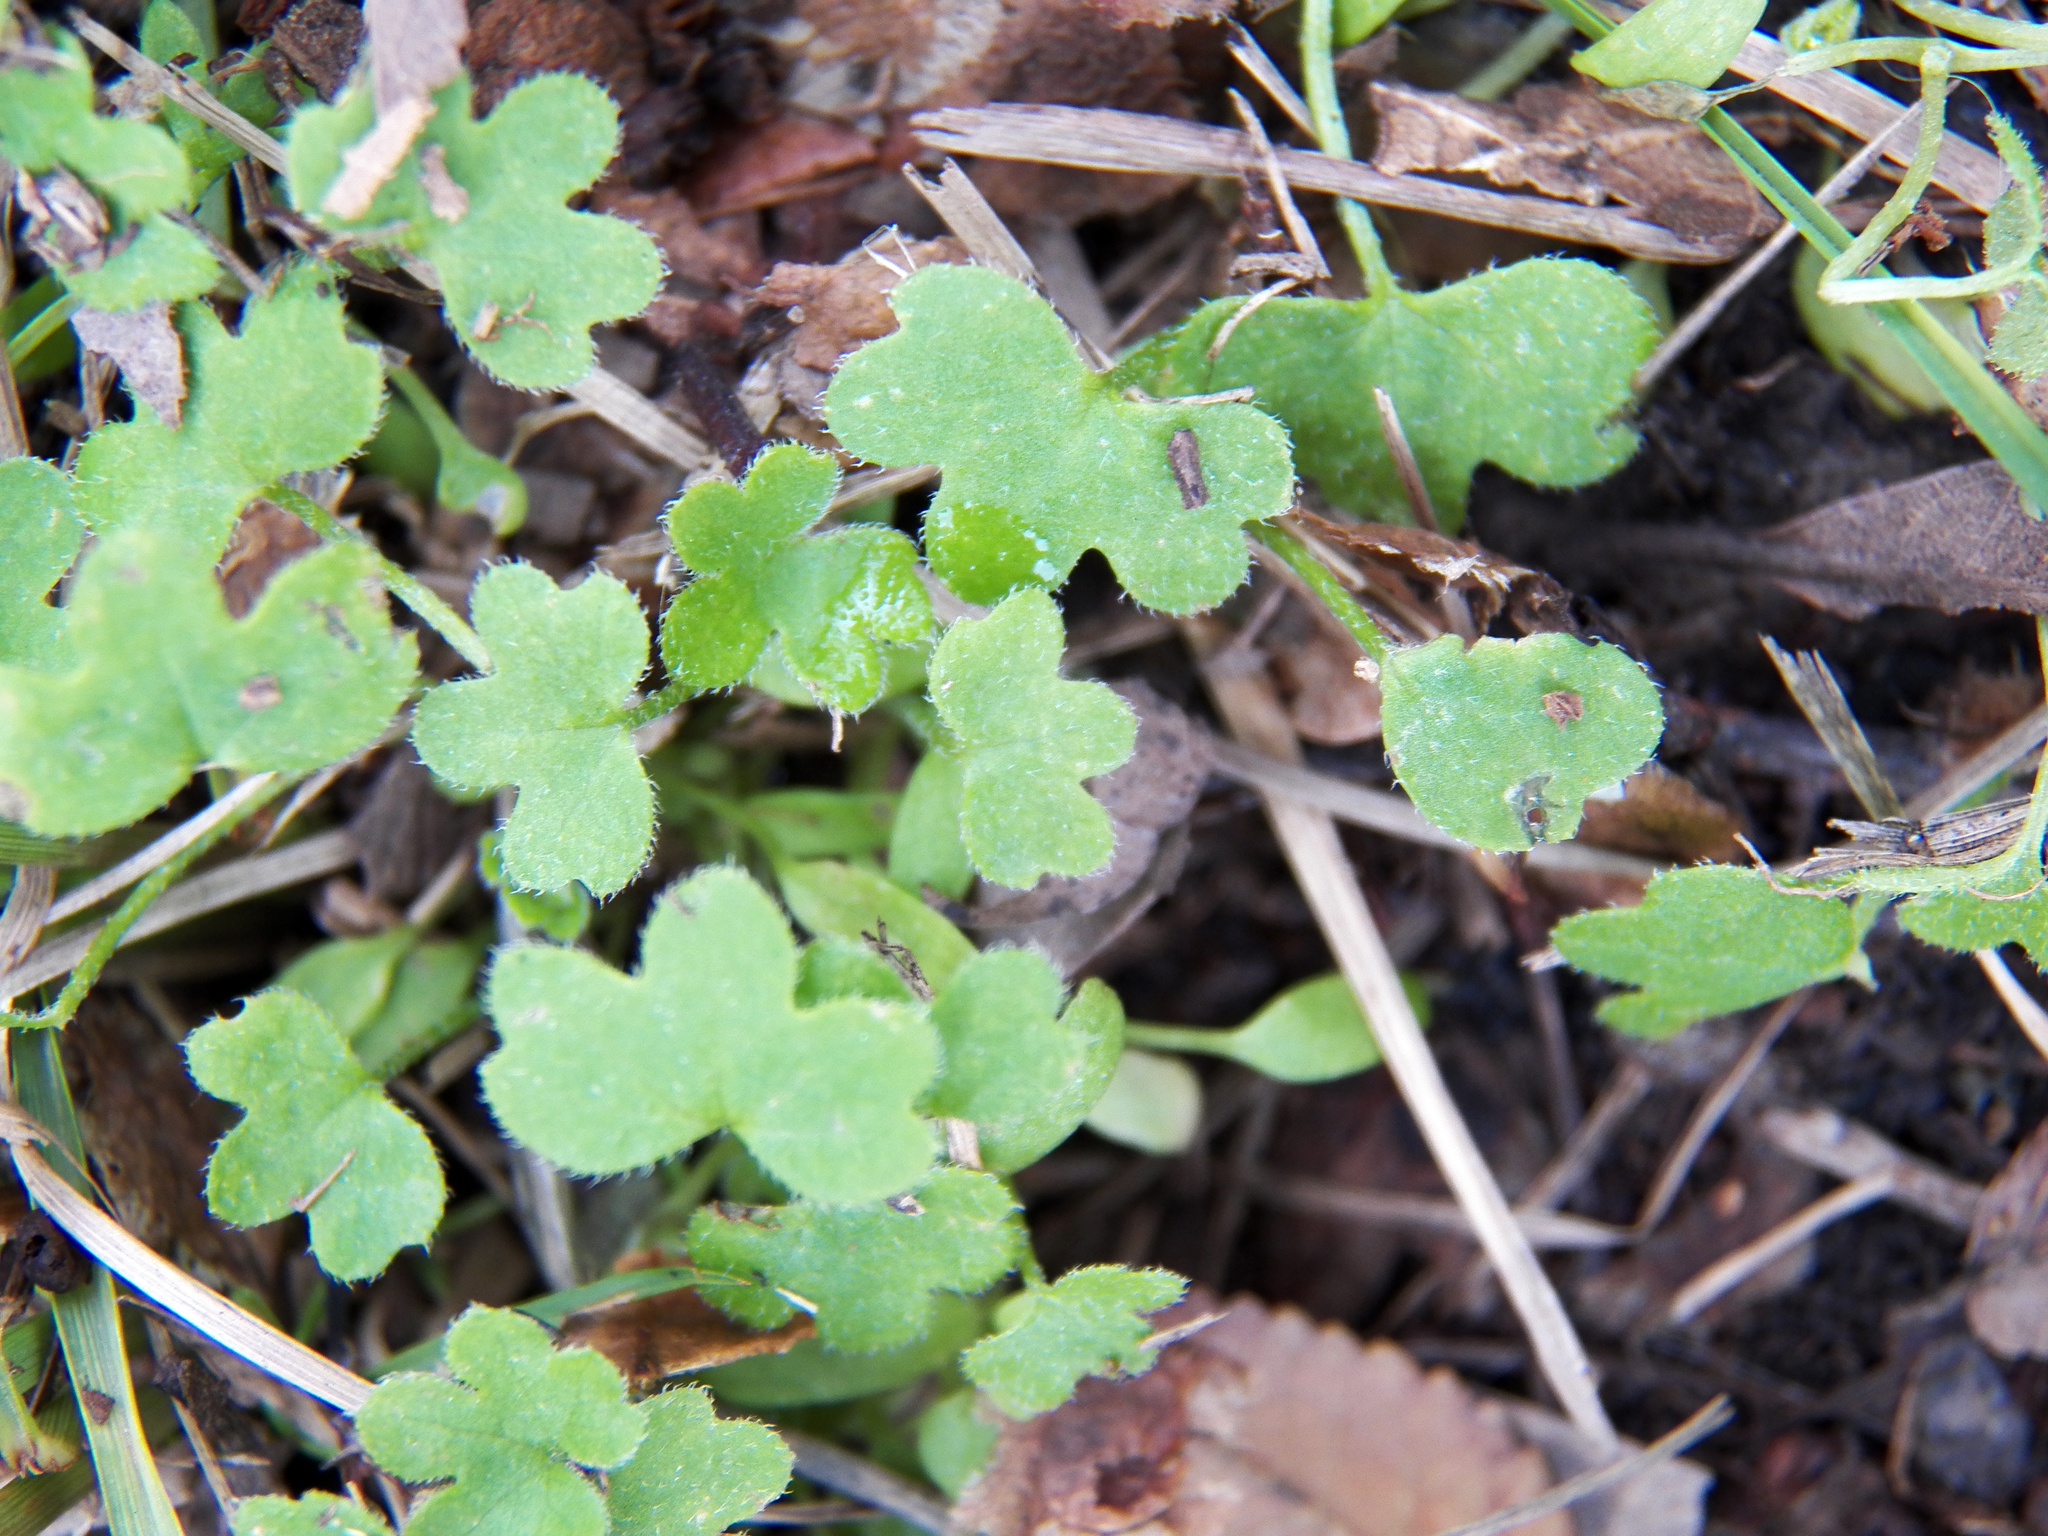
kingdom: Plantae
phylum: Tracheophyta
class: Magnoliopsida
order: Apiales
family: Apiaceae
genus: Bowlesia
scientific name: Bowlesia incana
